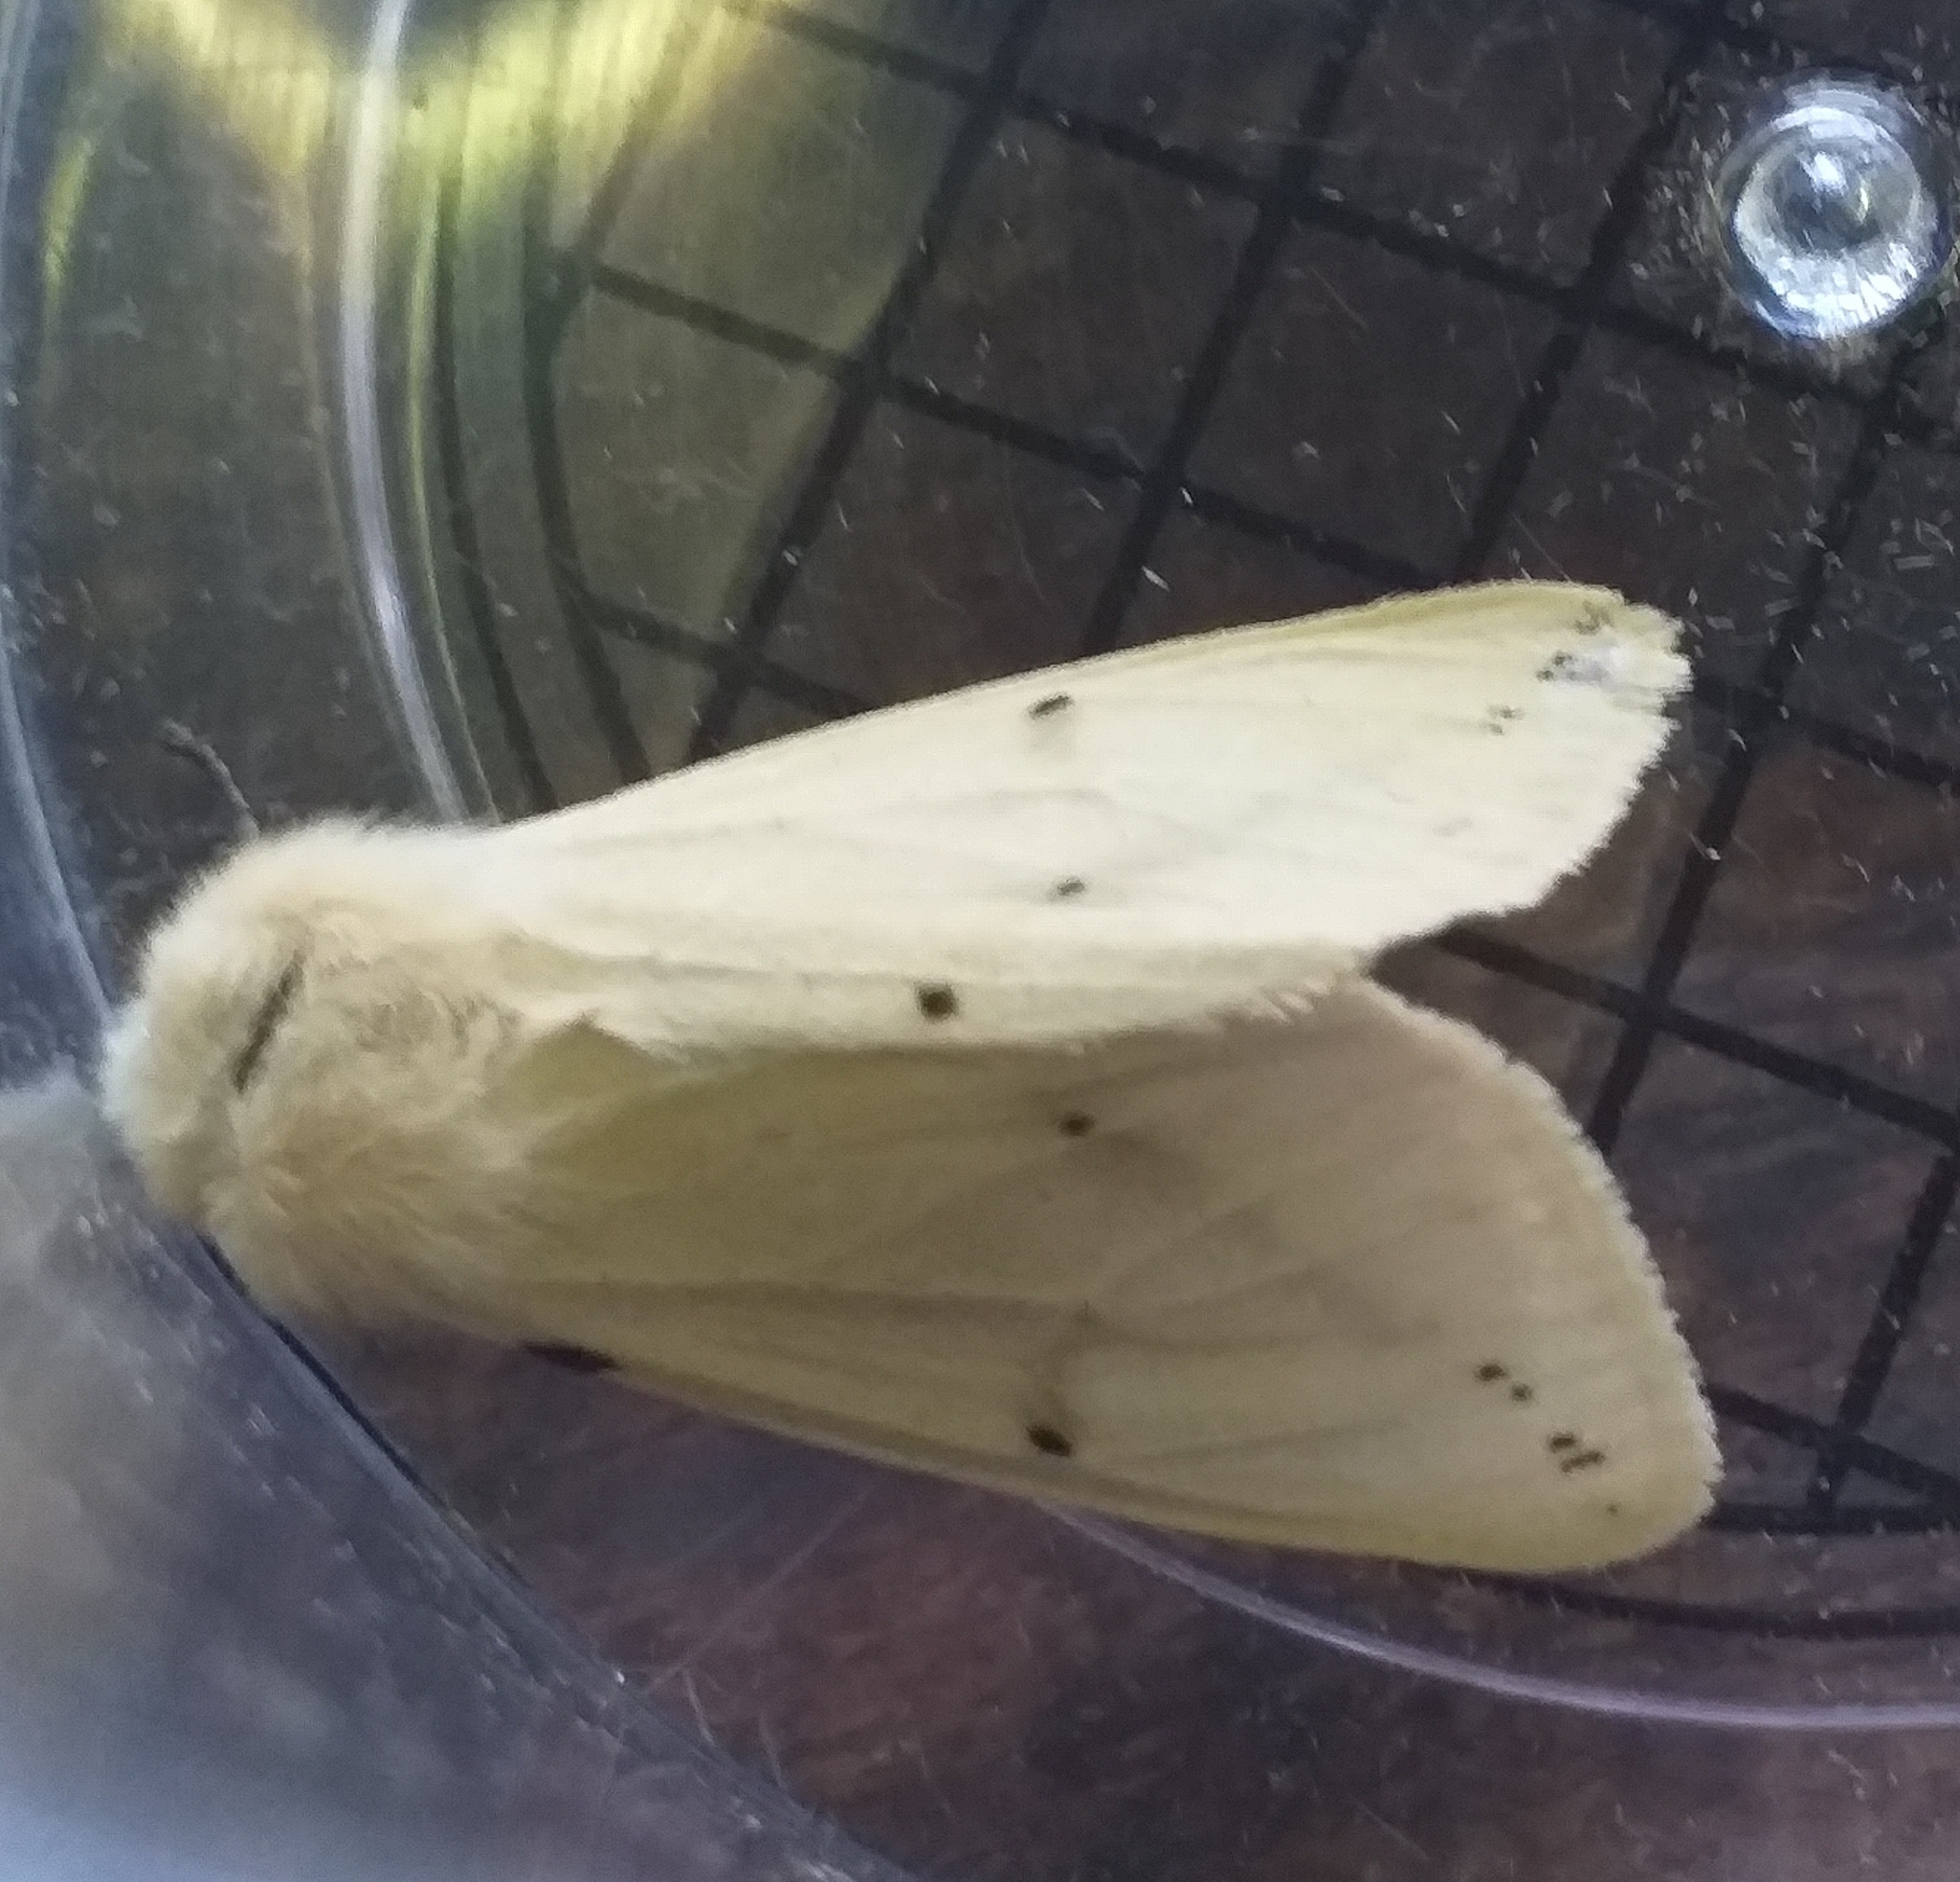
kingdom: Animalia
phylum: Arthropoda
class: Insecta
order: Lepidoptera
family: Erebidae
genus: Spilarctia
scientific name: Spilarctia lutea
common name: Buff ermine
